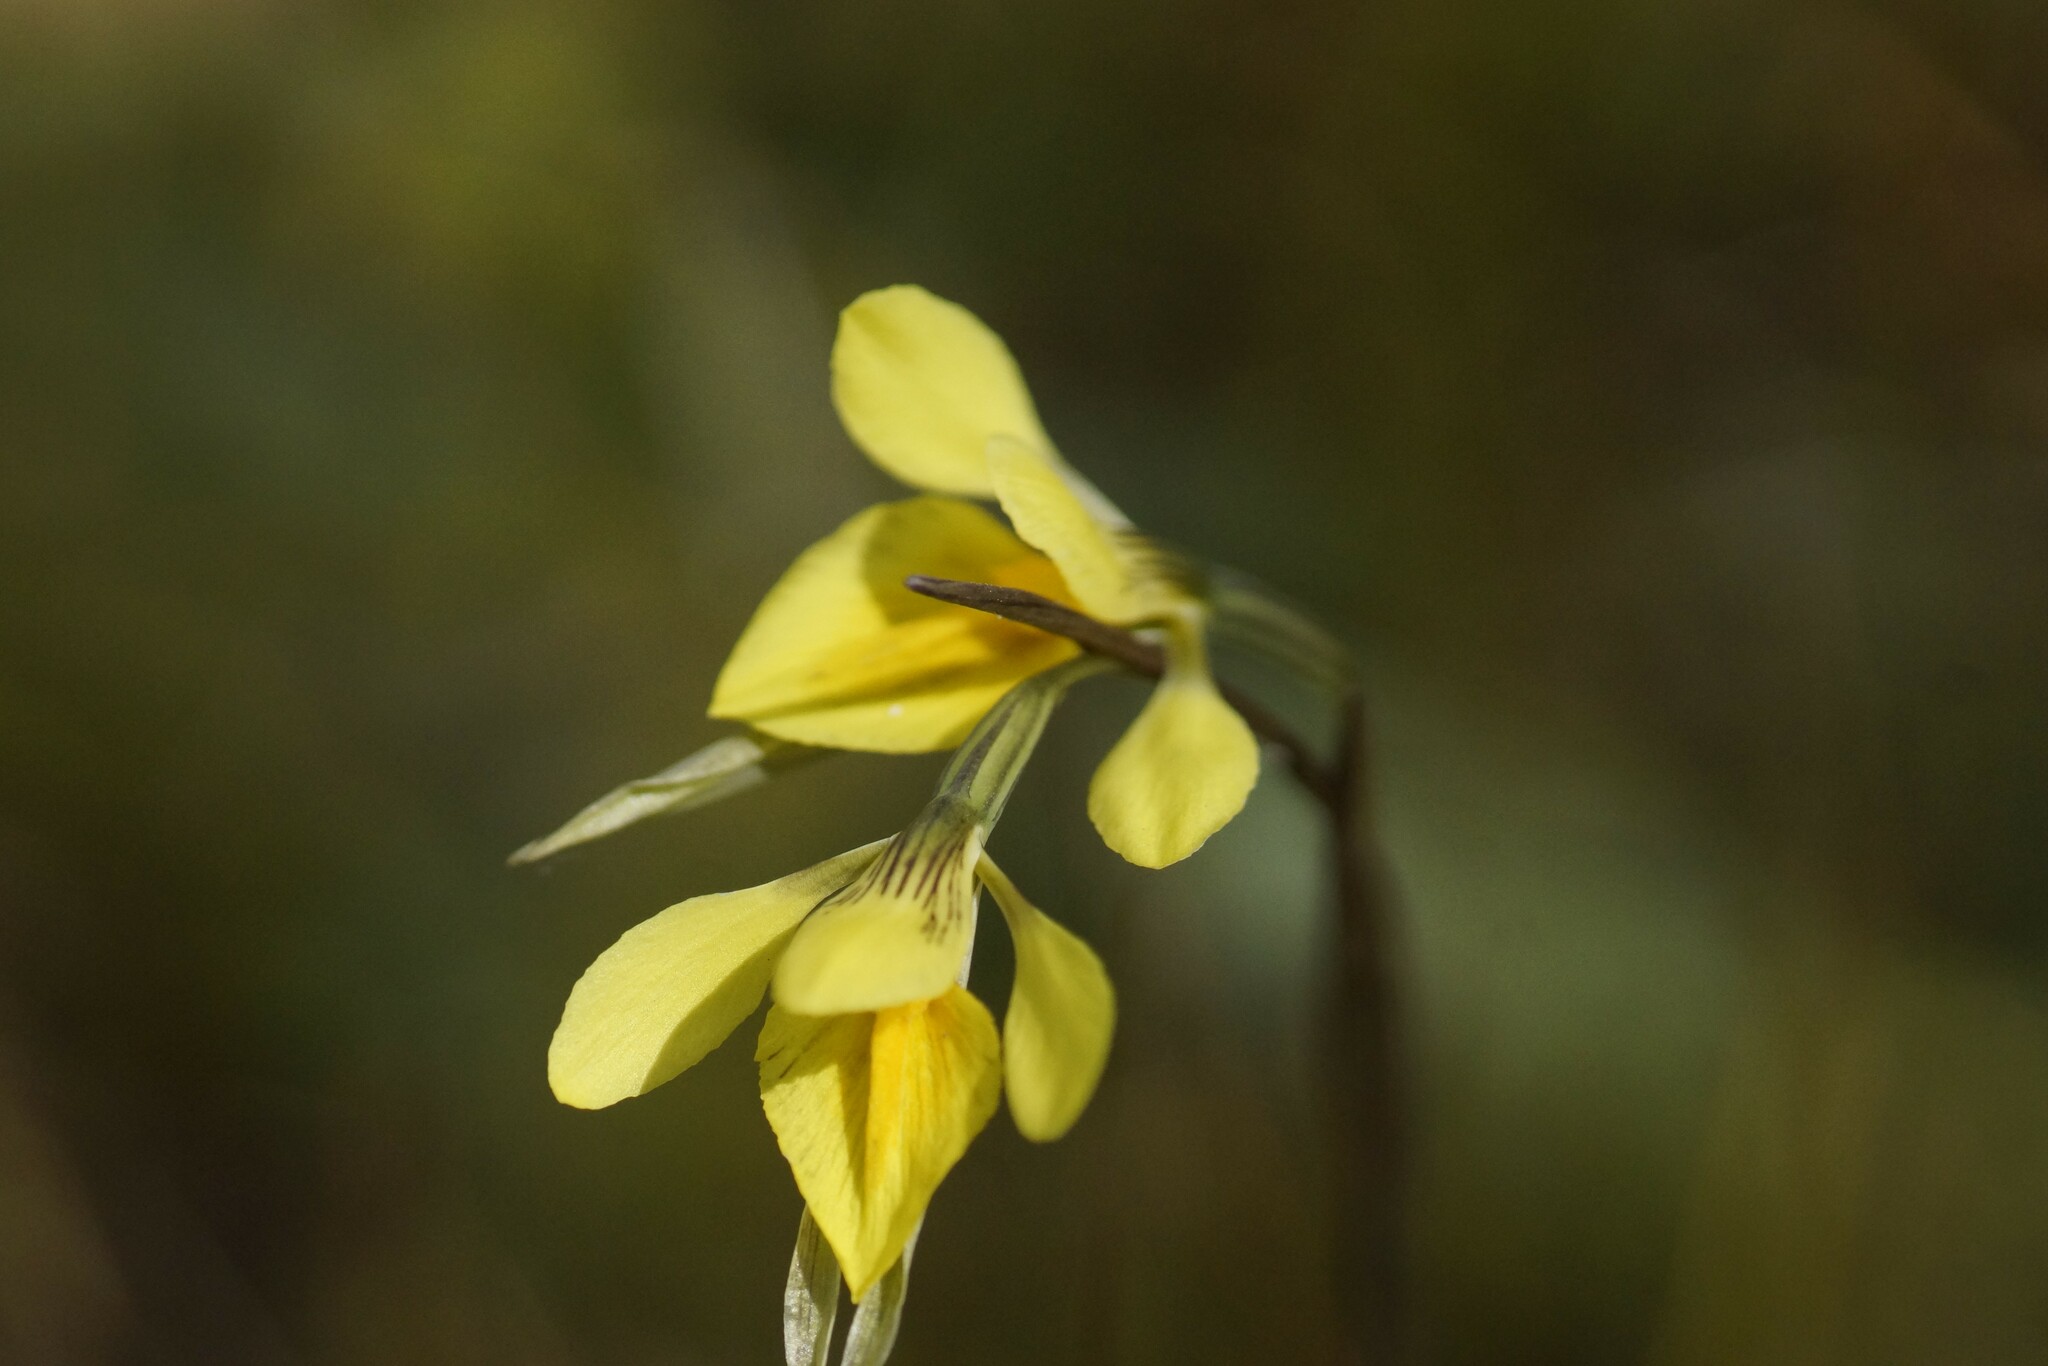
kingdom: Plantae
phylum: Tracheophyta
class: Liliopsida
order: Asparagales
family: Orchidaceae
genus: Diuris
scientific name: Diuris chryseopsis
